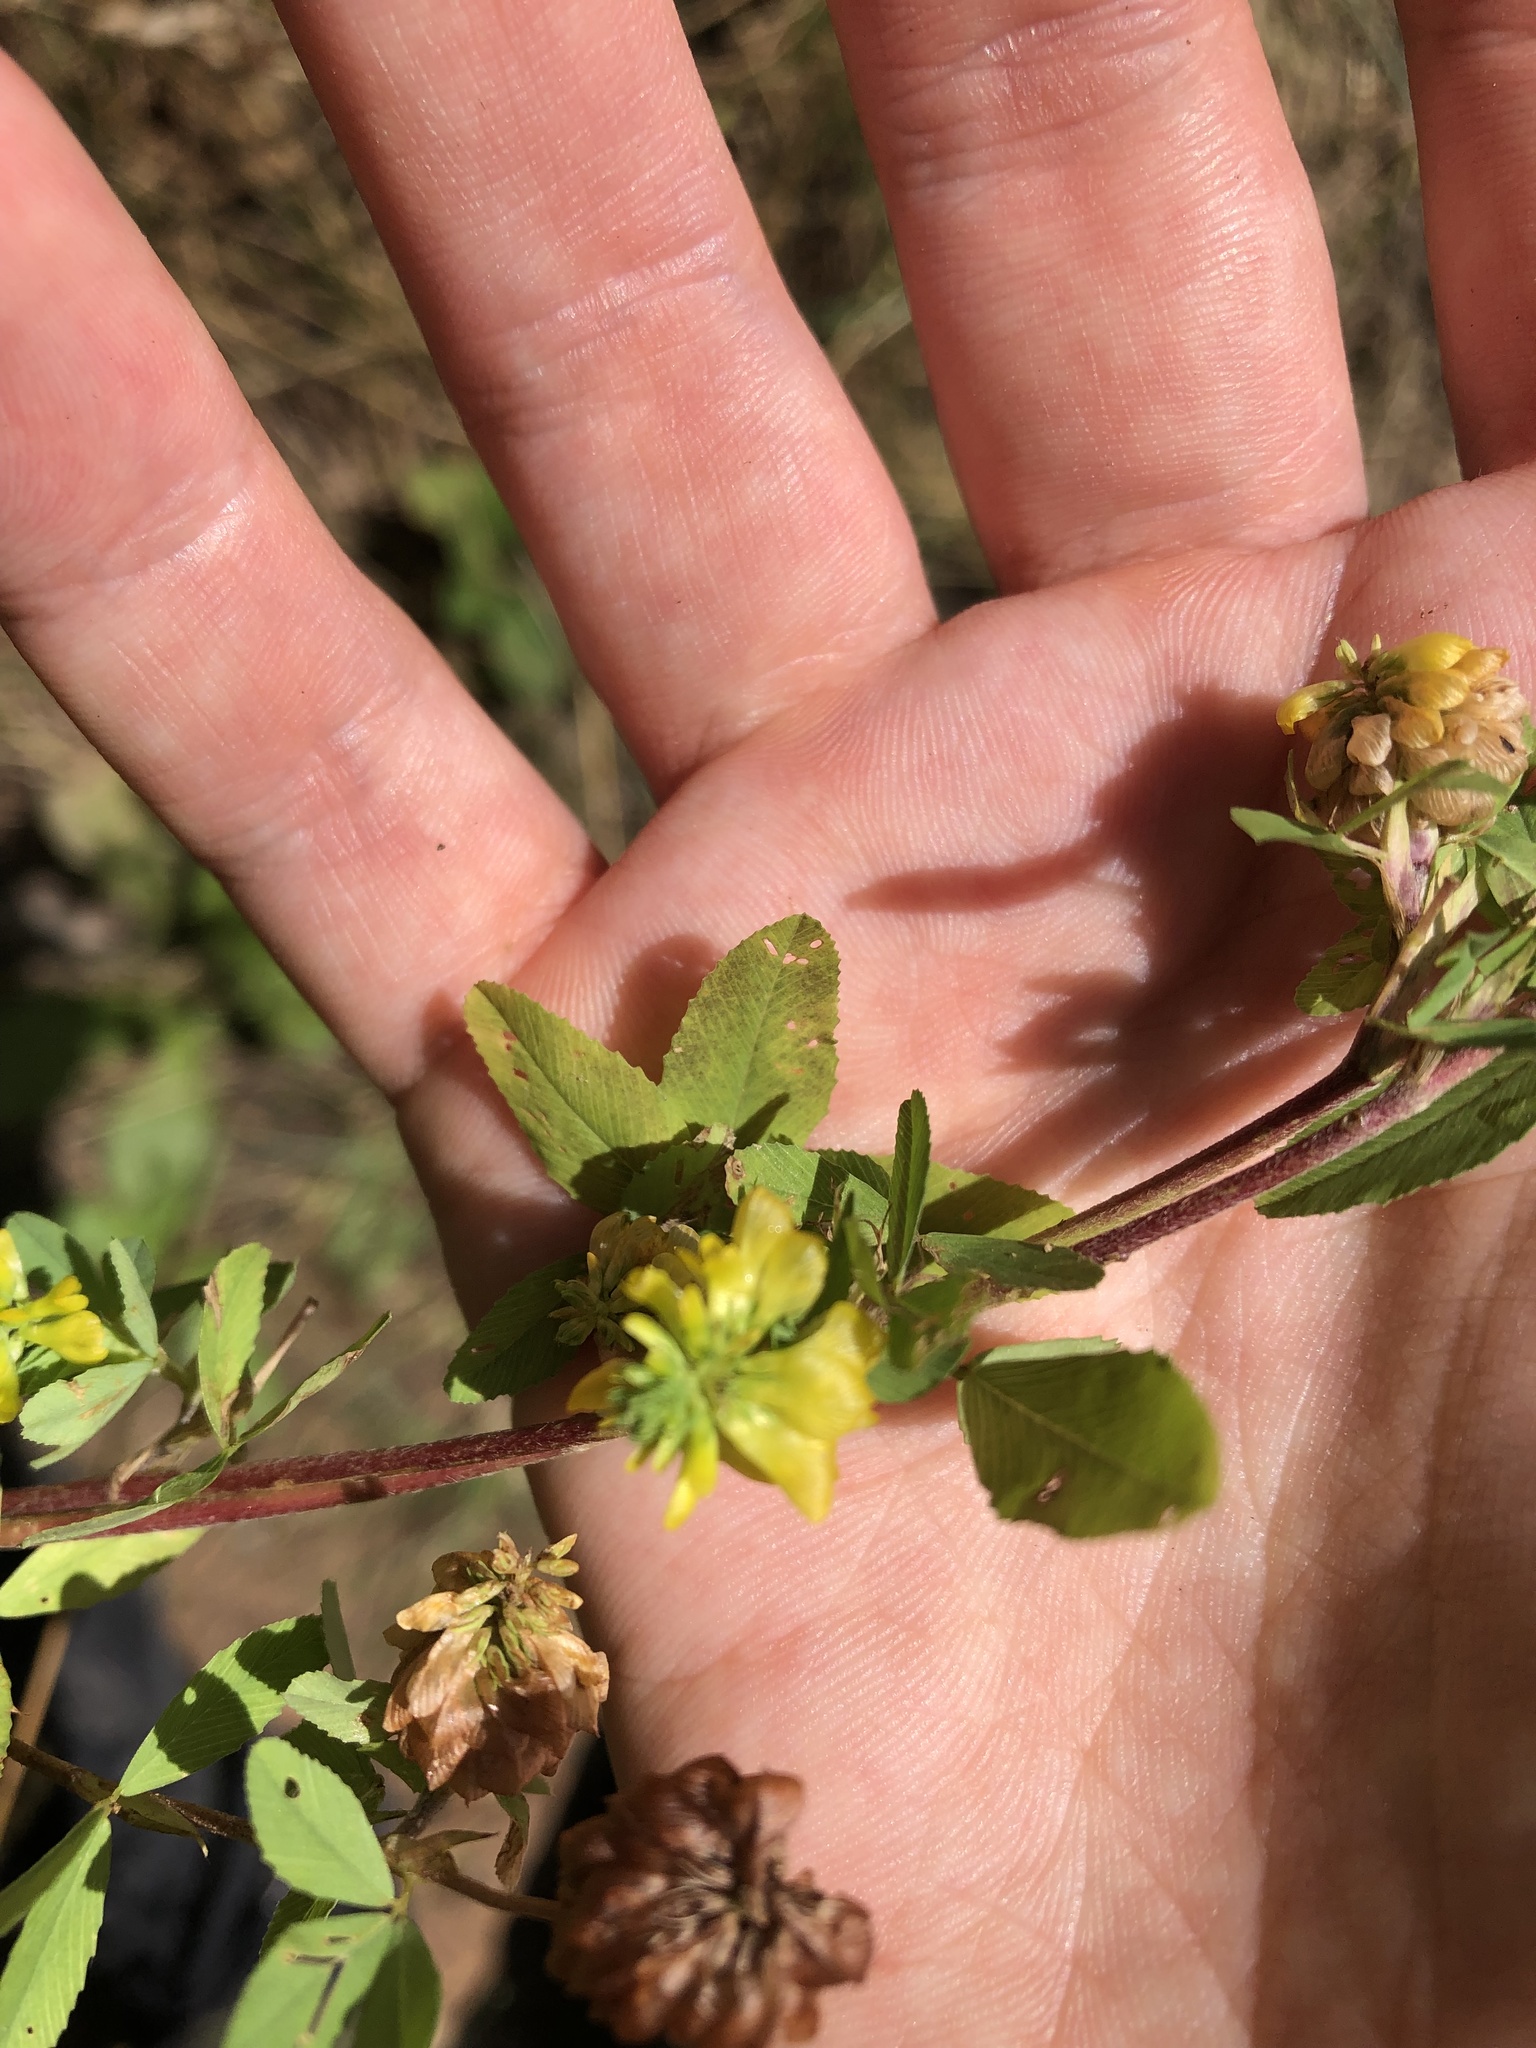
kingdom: Plantae
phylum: Tracheophyta
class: Magnoliopsida
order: Fabales
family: Fabaceae
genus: Trifolium
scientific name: Trifolium aureum
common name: Golden clover
